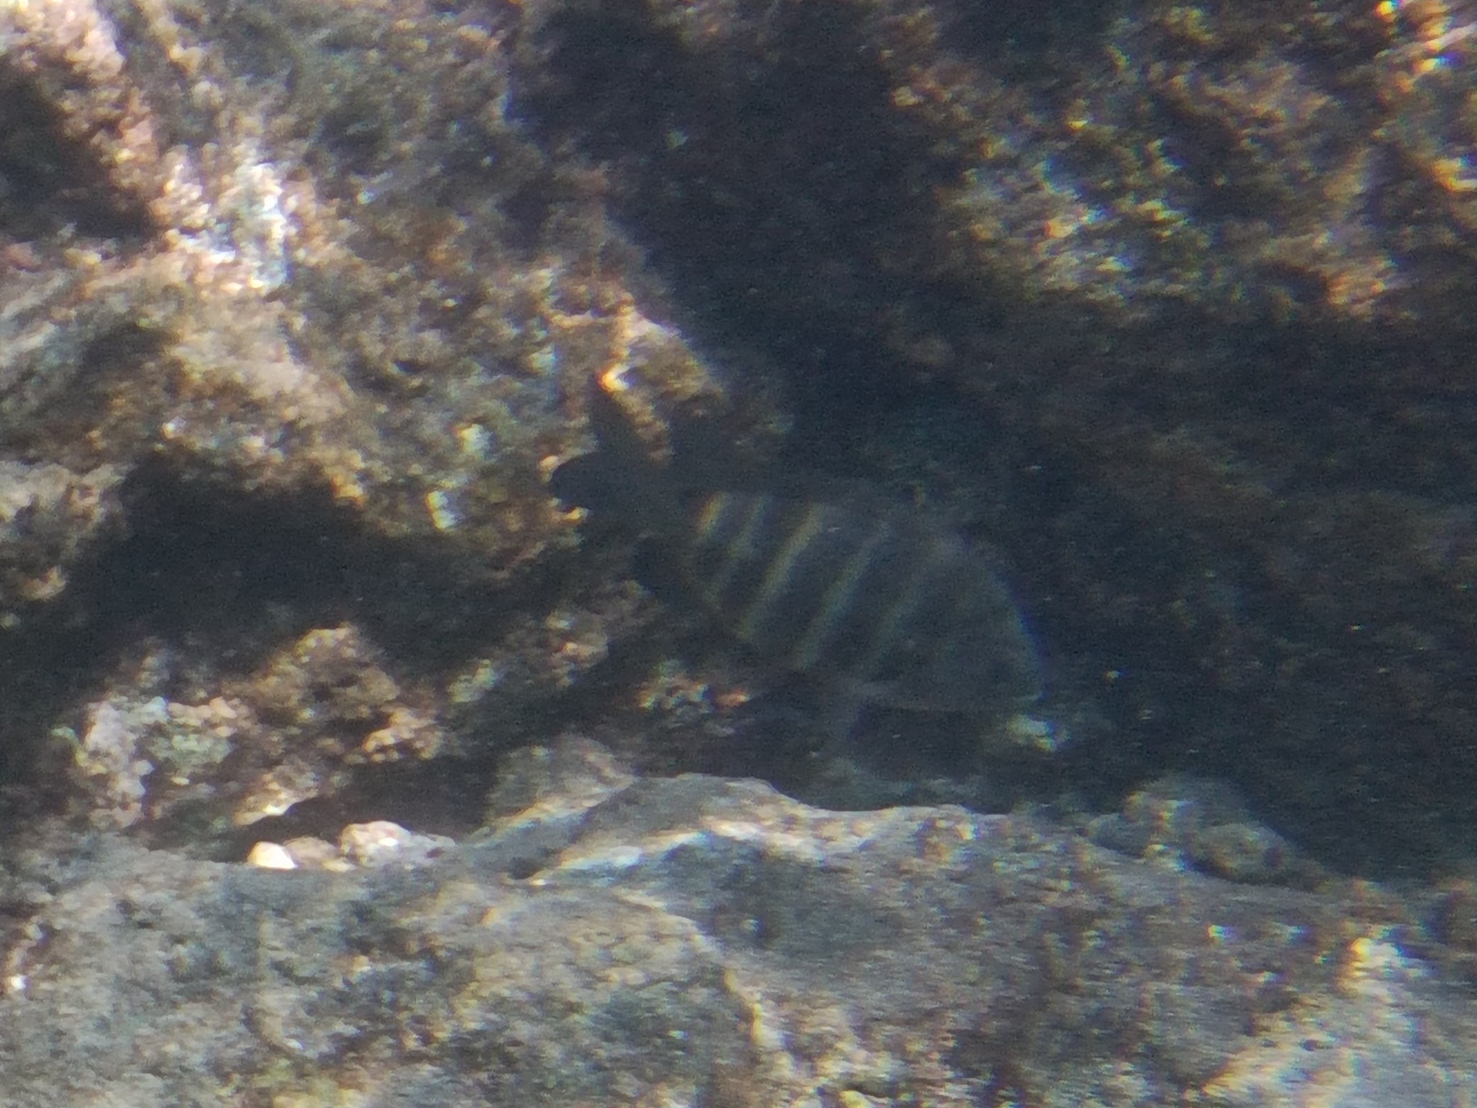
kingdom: Animalia
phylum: Chordata
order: Perciformes
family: Pomacentridae
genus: Abudefduf
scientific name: Abudefduf sordidus
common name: Blackspot sergeant
